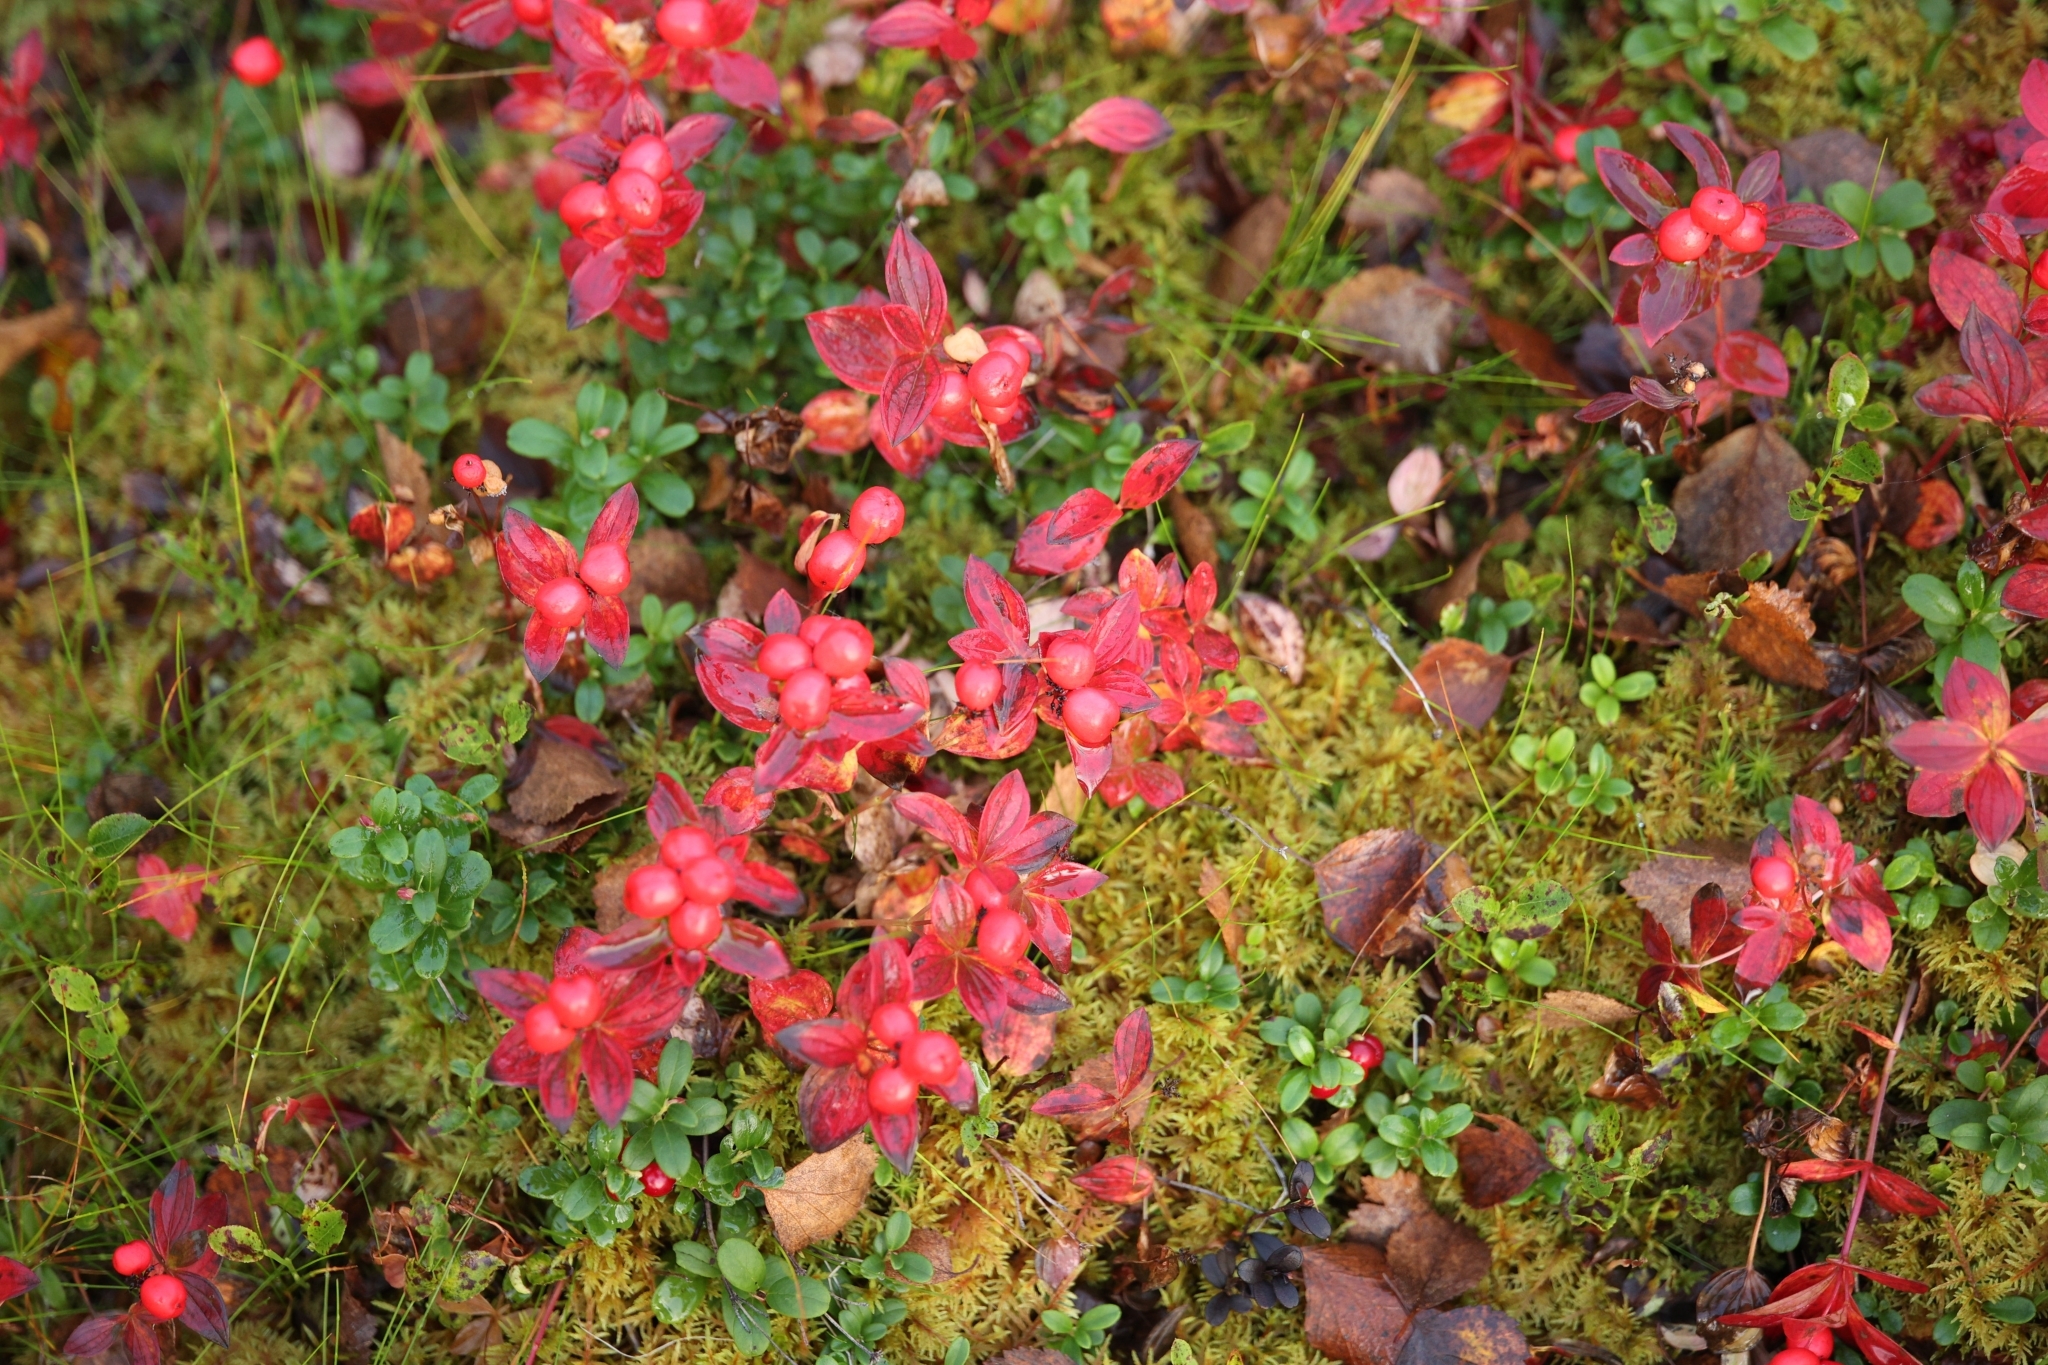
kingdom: Plantae
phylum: Tracheophyta
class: Magnoliopsida
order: Cornales
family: Cornaceae
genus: Cornus
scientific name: Cornus suecica
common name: Dwarf cornel
